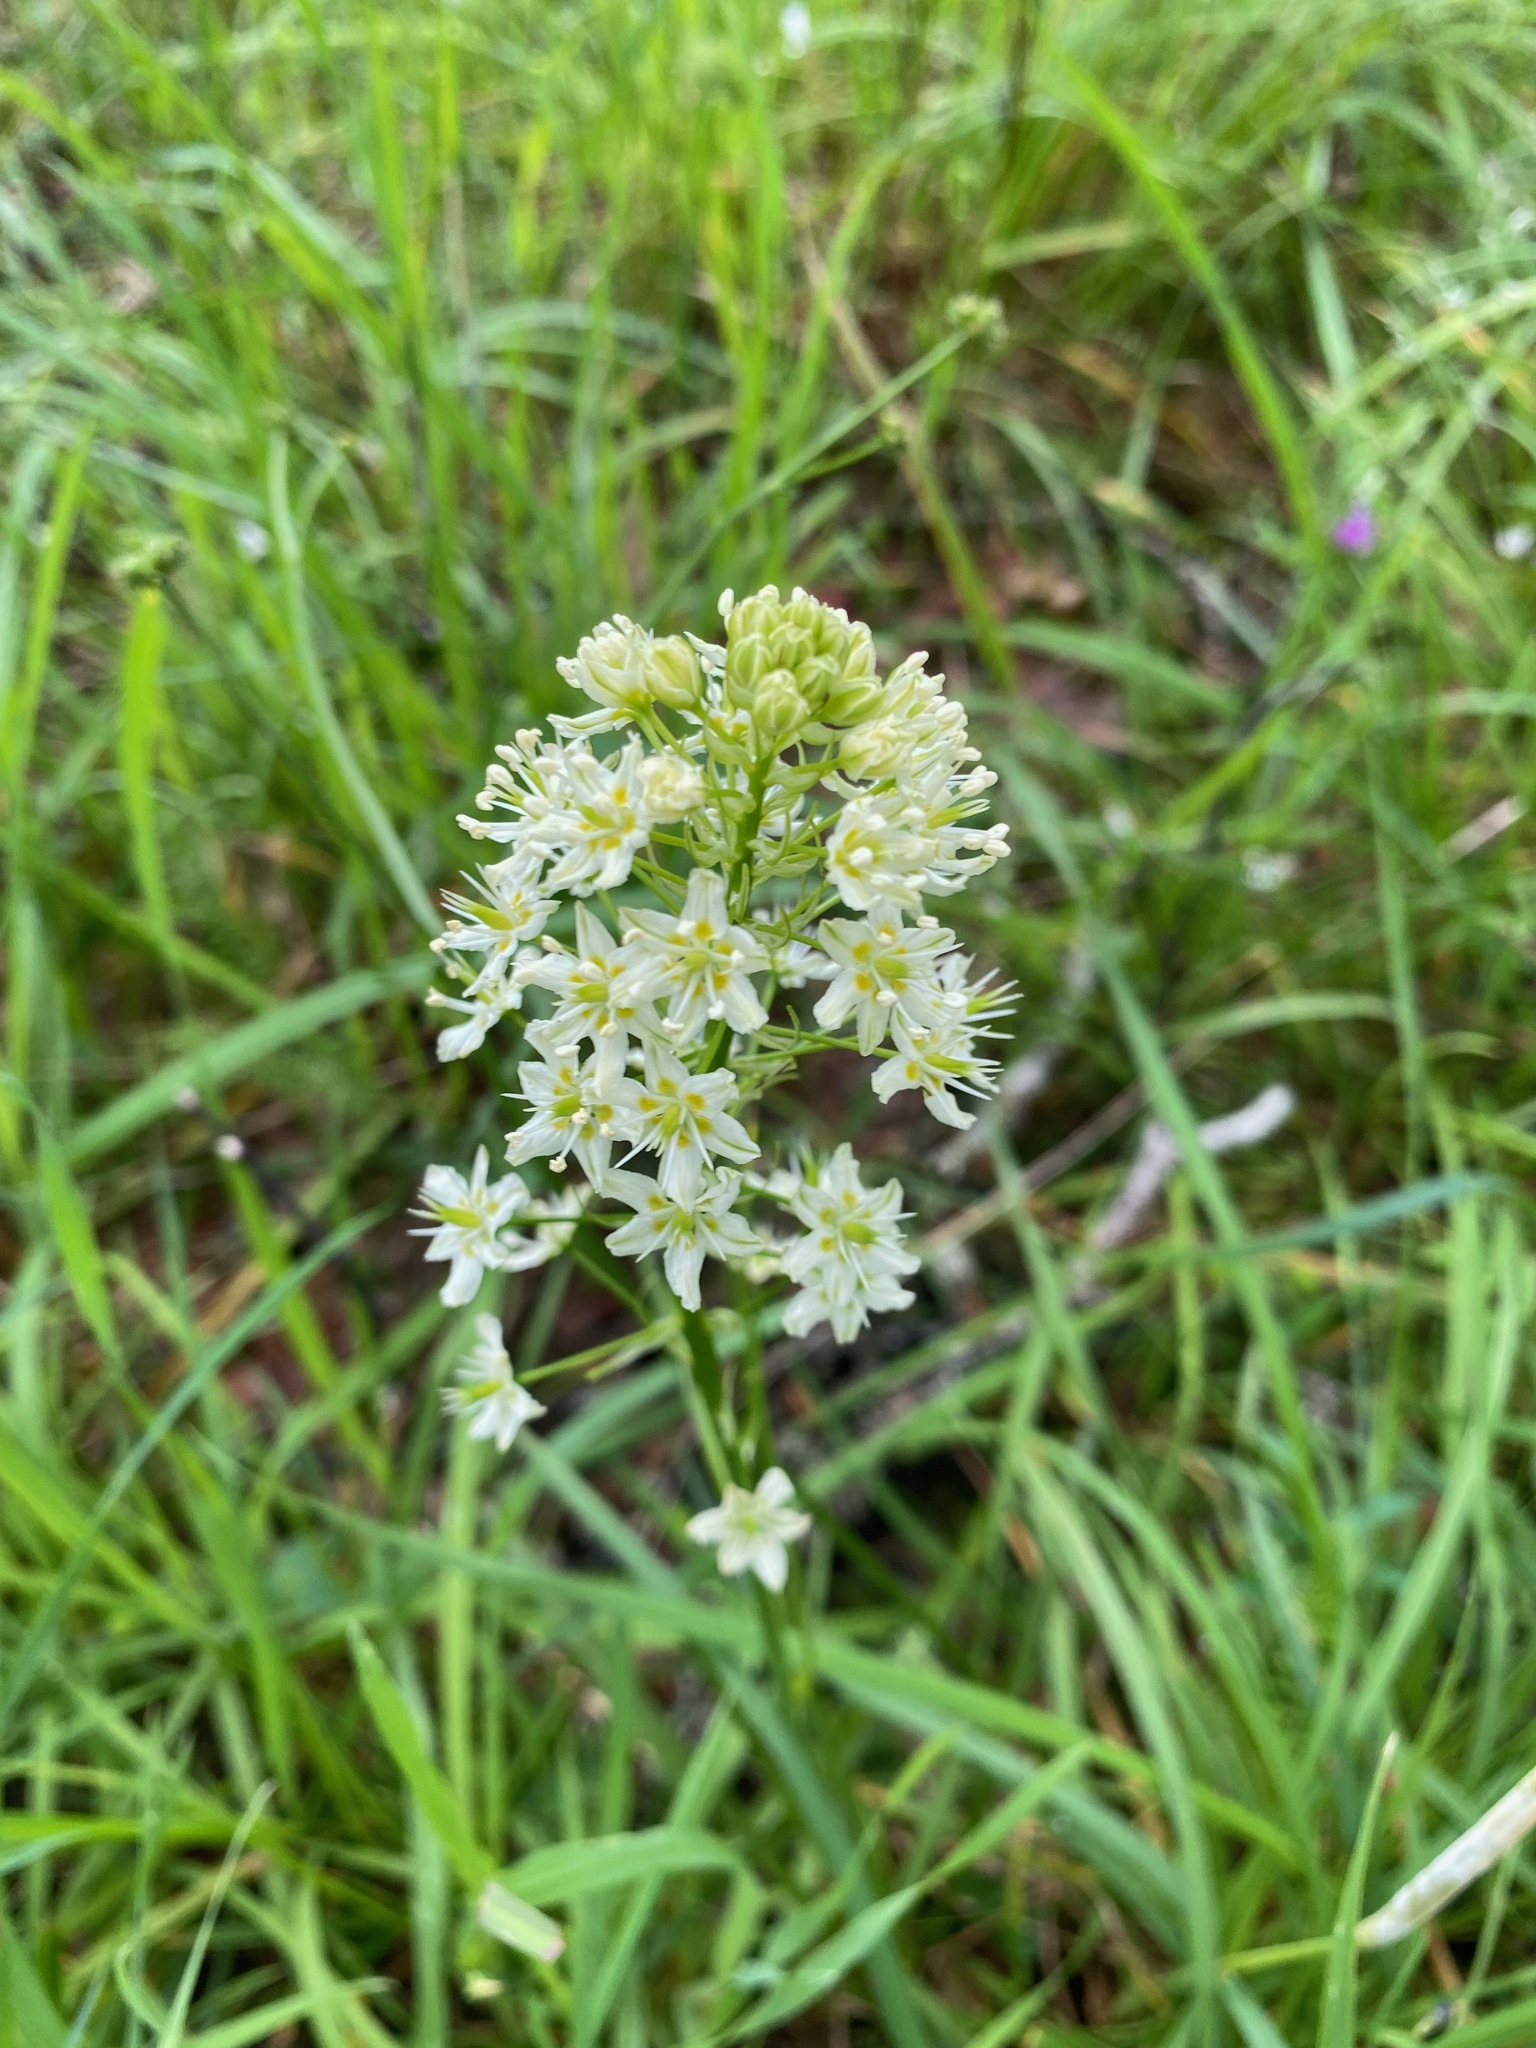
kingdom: Plantae
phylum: Tracheophyta
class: Liliopsida
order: Liliales
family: Melanthiaceae
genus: Toxicoscordion
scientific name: Toxicoscordion venenosum
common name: Meadow death camas
